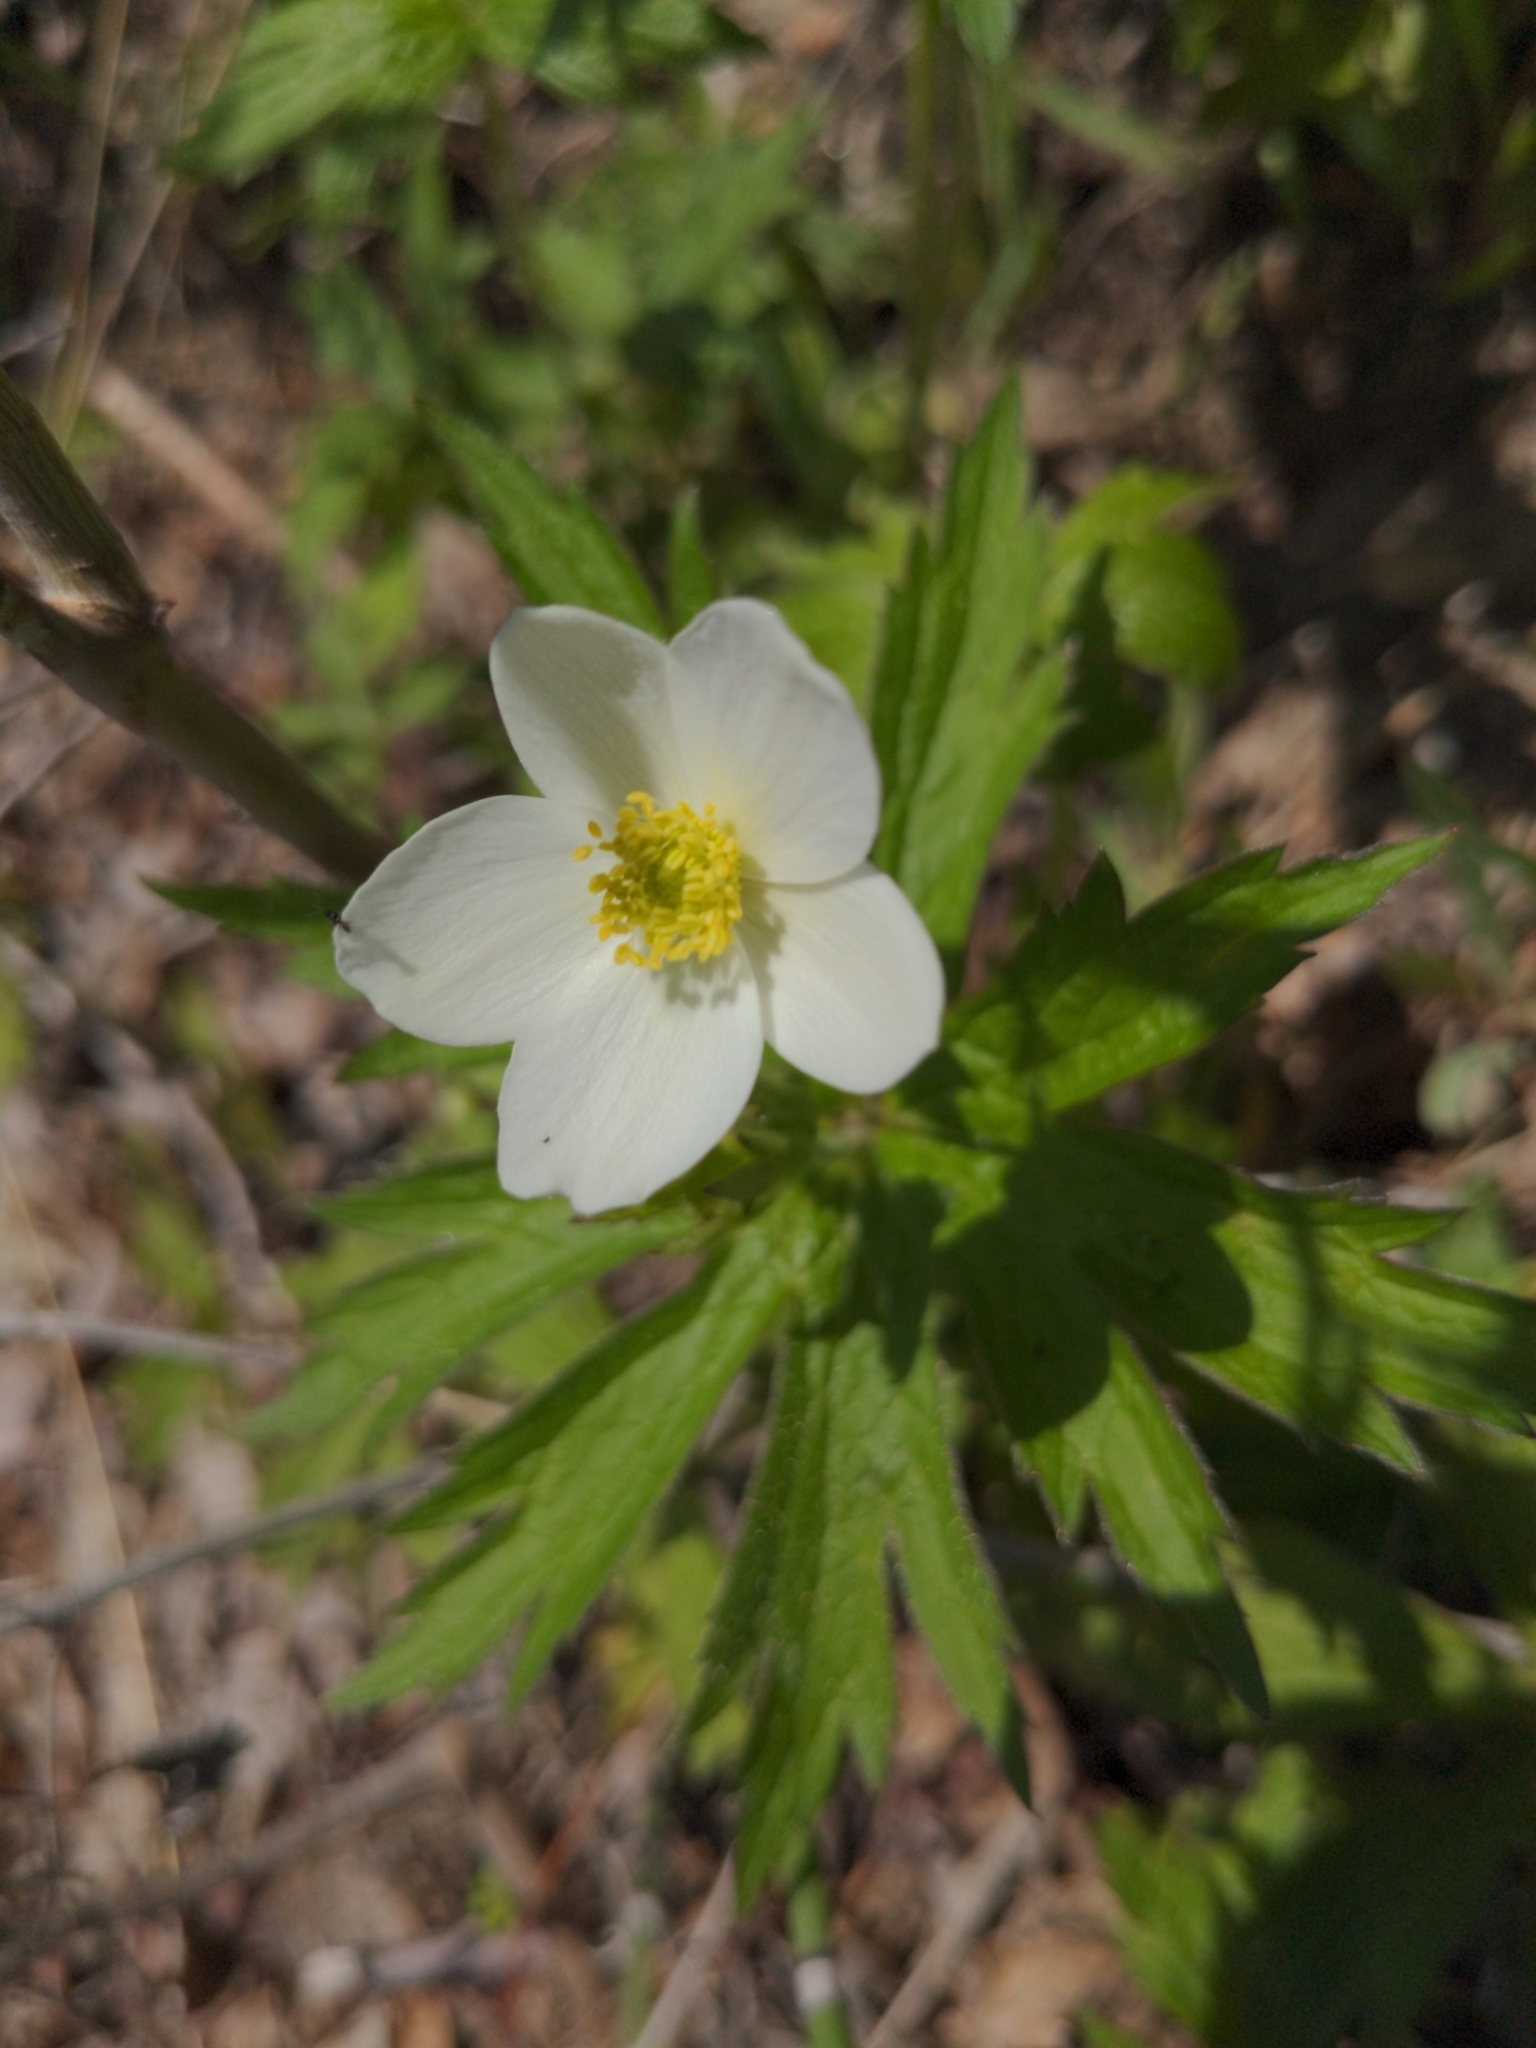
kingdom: Plantae
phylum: Tracheophyta
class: Magnoliopsida
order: Ranunculales
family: Ranunculaceae
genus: Anemonastrum
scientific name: Anemonastrum canadense
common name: Canada anemone
